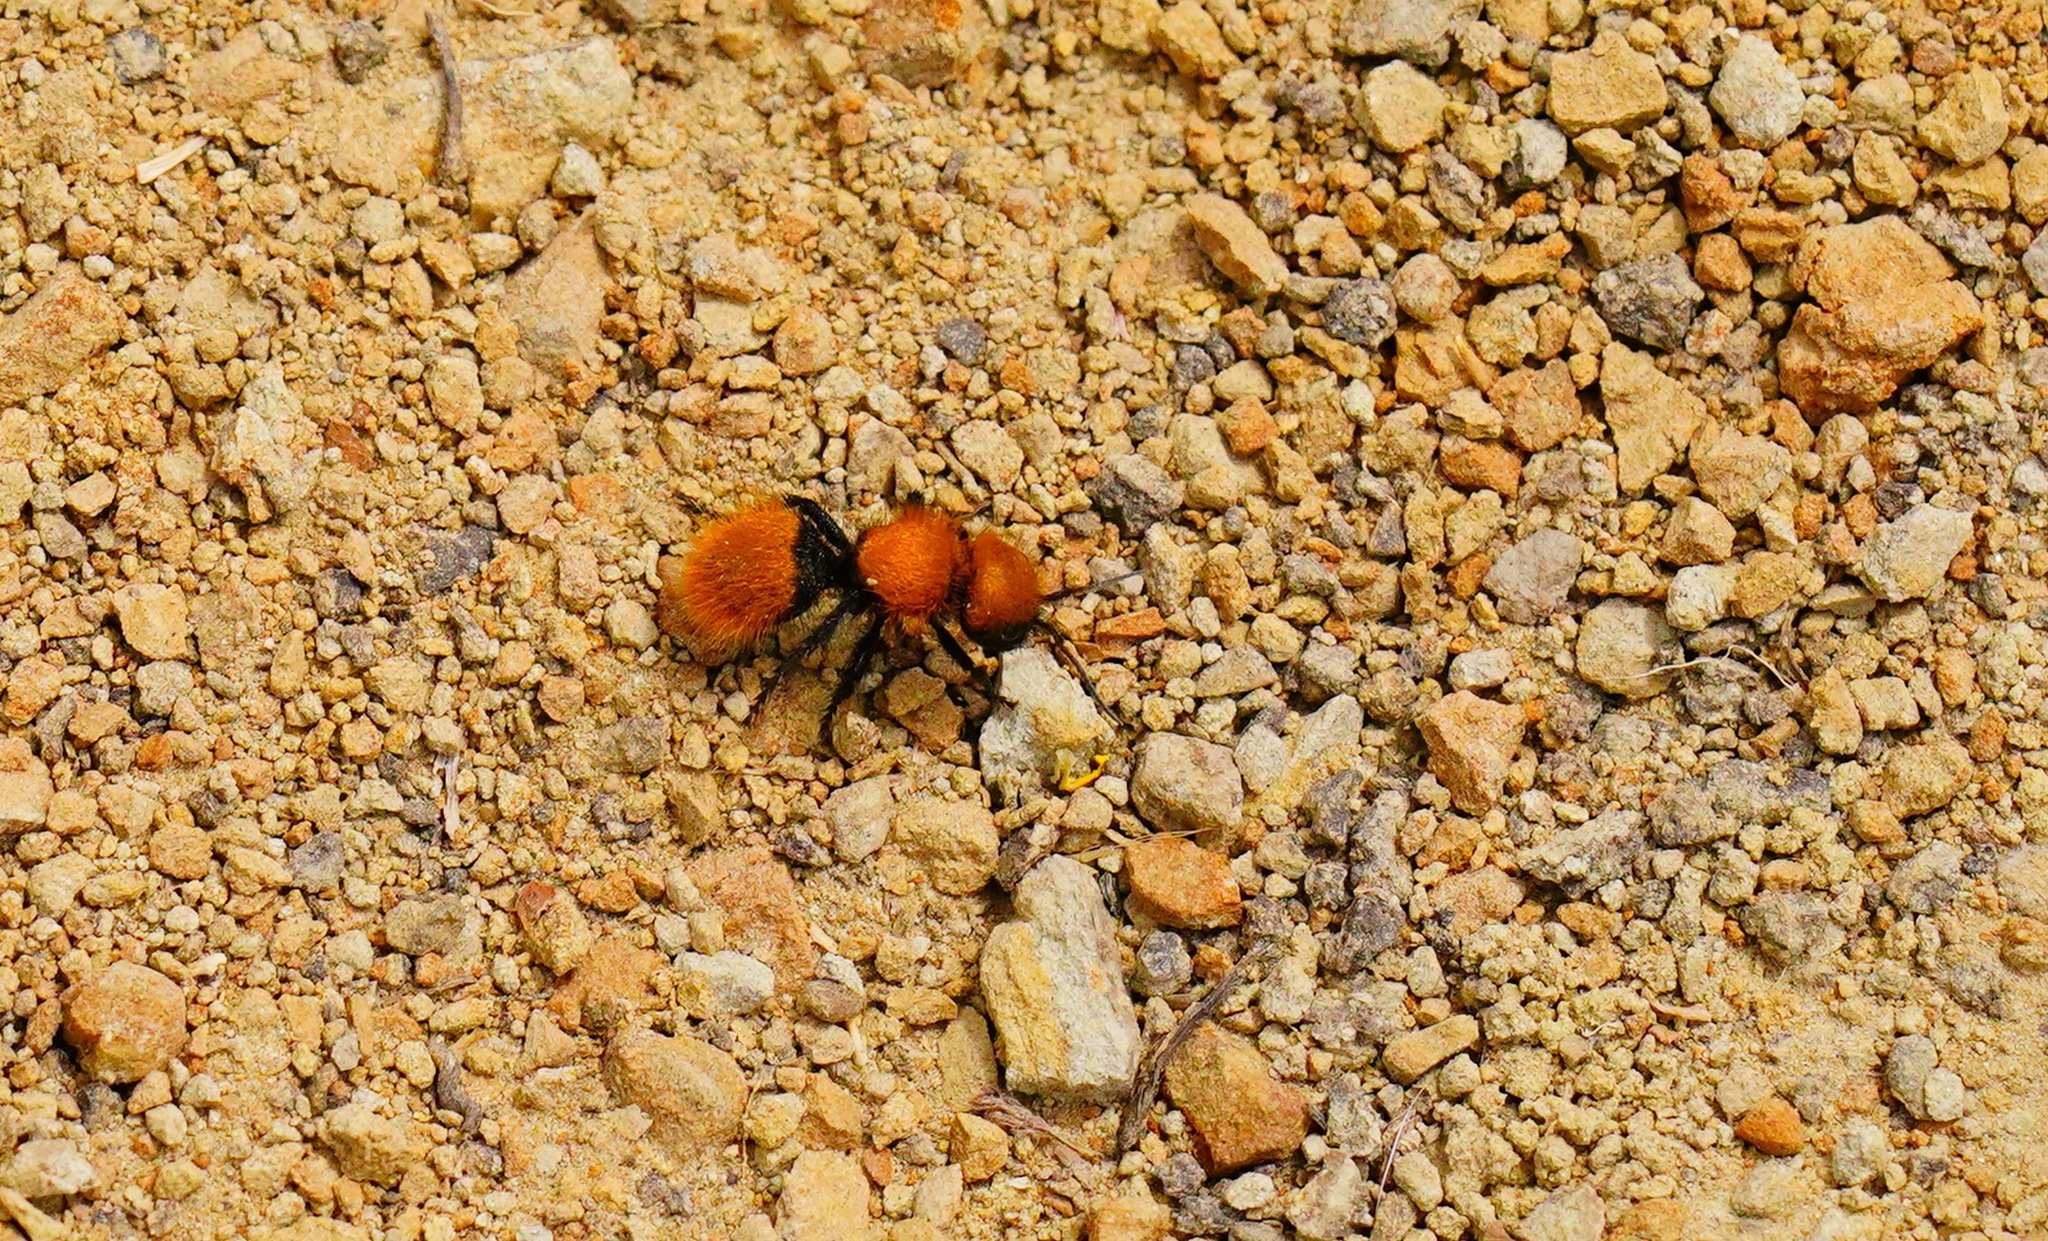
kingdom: Animalia
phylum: Arthropoda
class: Insecta
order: Hymenoptera
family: Mutillidae
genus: Dasymutilla
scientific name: Dasymutilla
